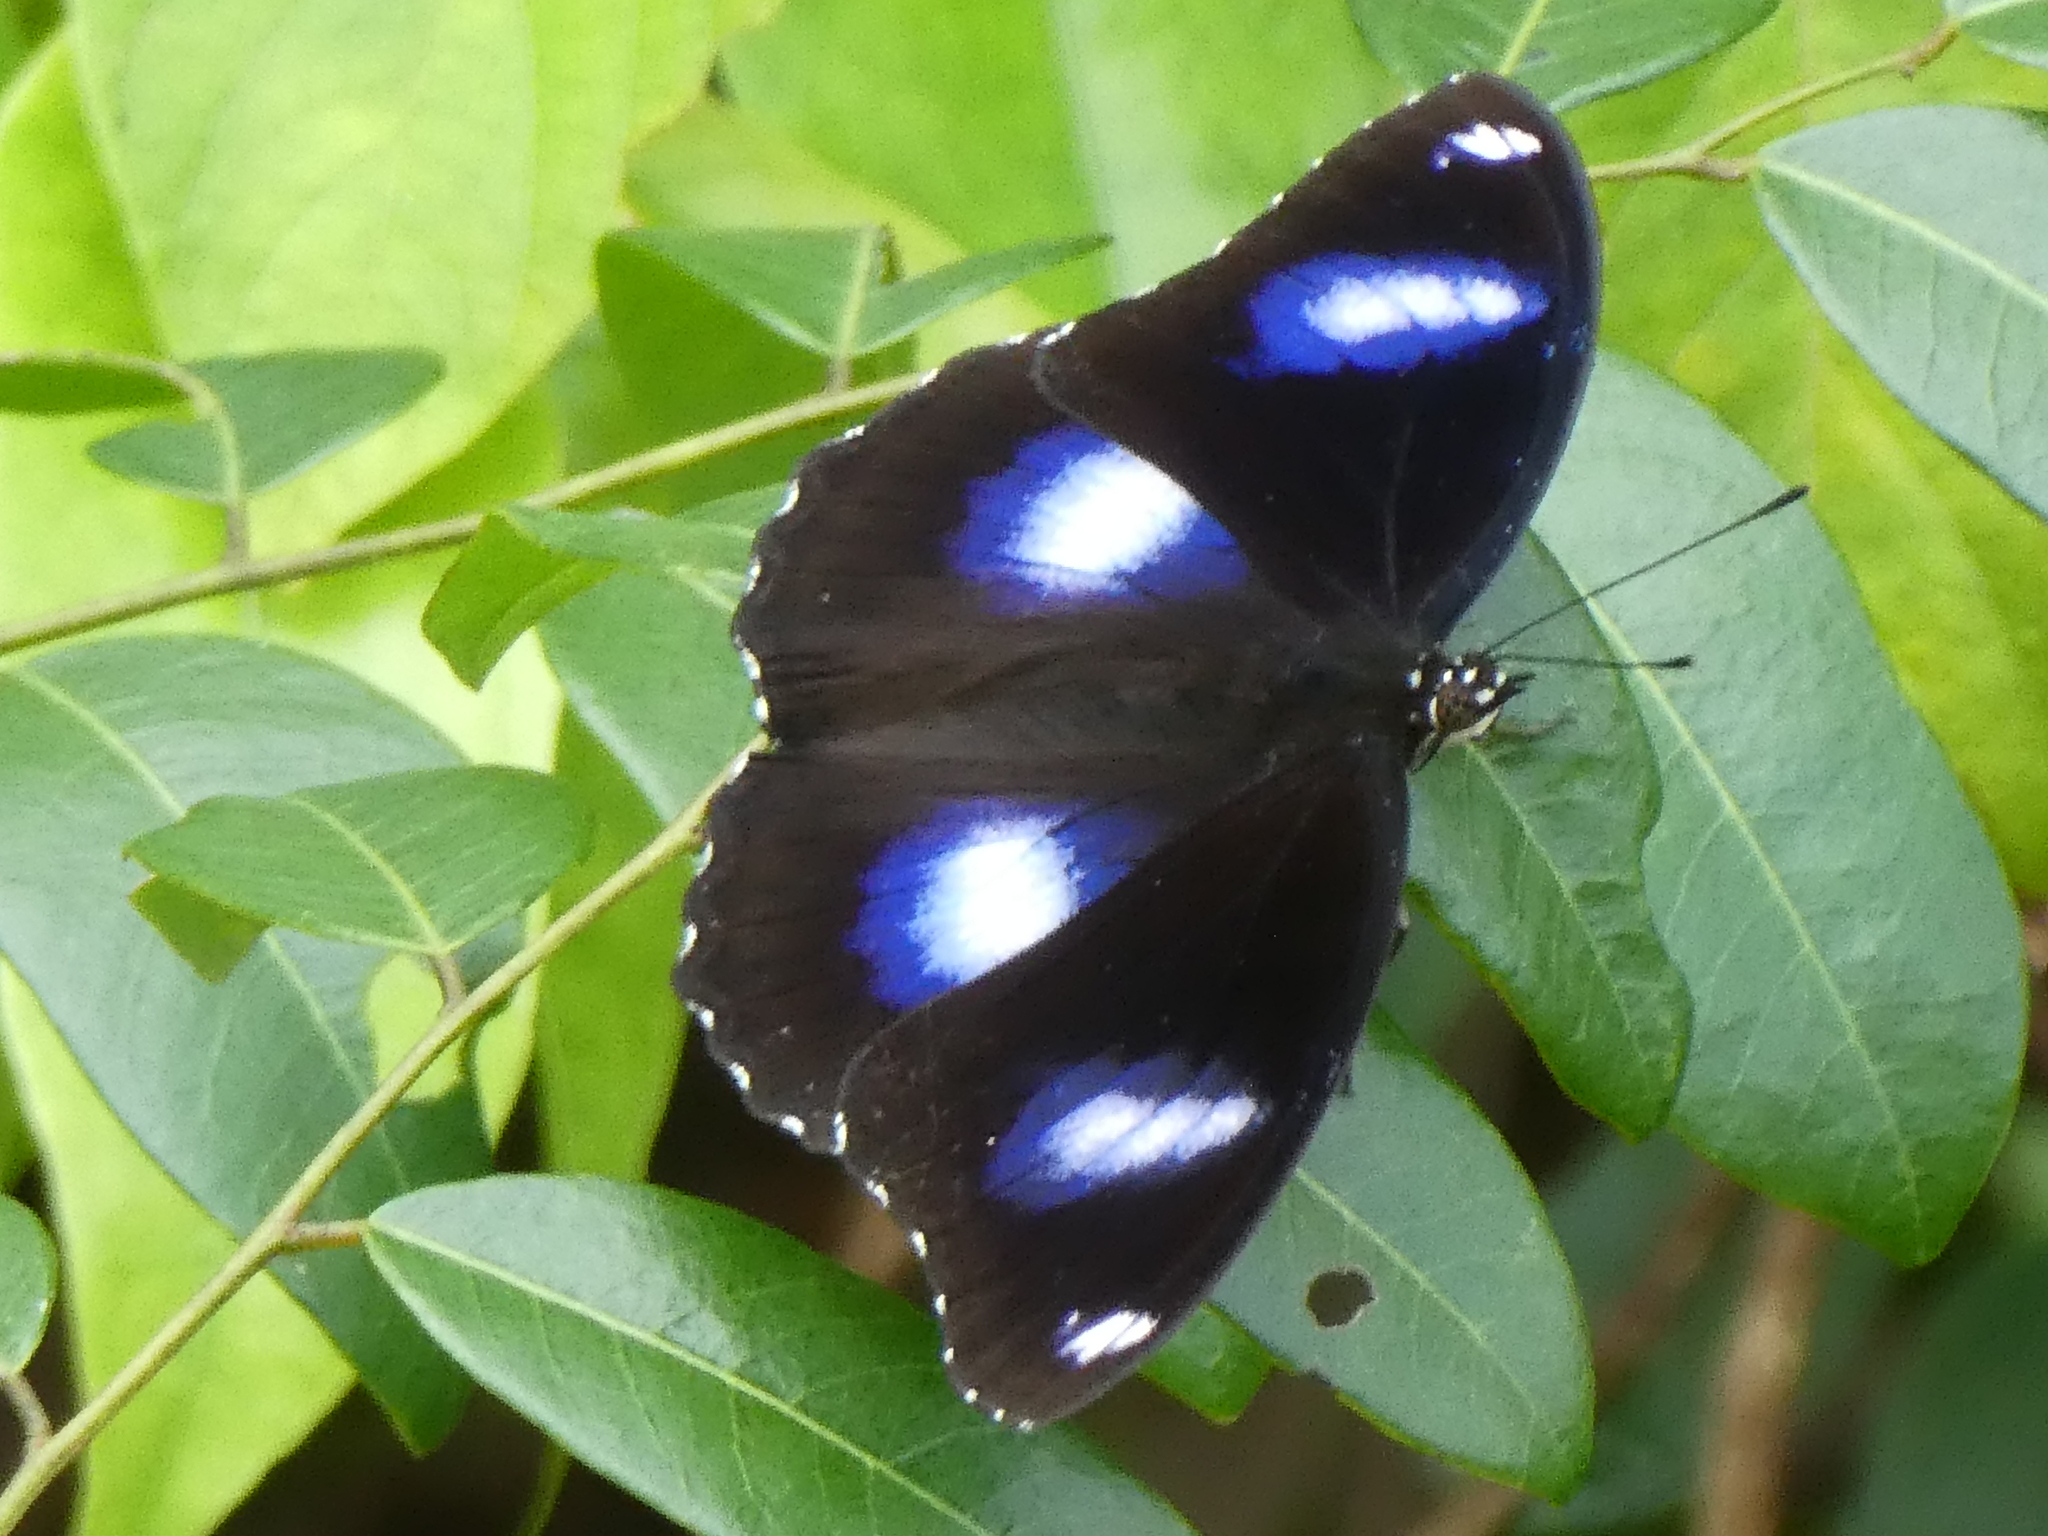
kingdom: Animalia
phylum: Arthropoda
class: Insecta
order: Lepidoptera
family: Nymphalidae
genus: Hypolimnas
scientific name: Hypolimnas bolina
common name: Great eggfly
